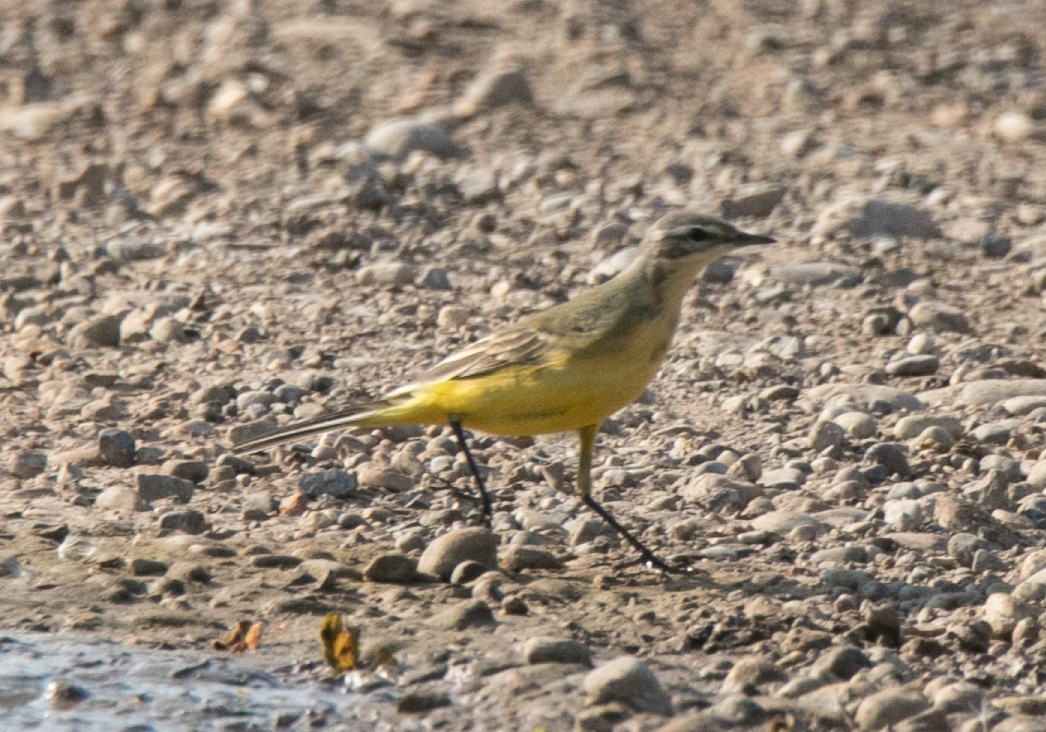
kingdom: Animalia
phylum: Chordata
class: Aves
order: Passeriformes
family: Motacillidae
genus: Motacilla
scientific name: Motacilla flava
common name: Western yellow wagtail
